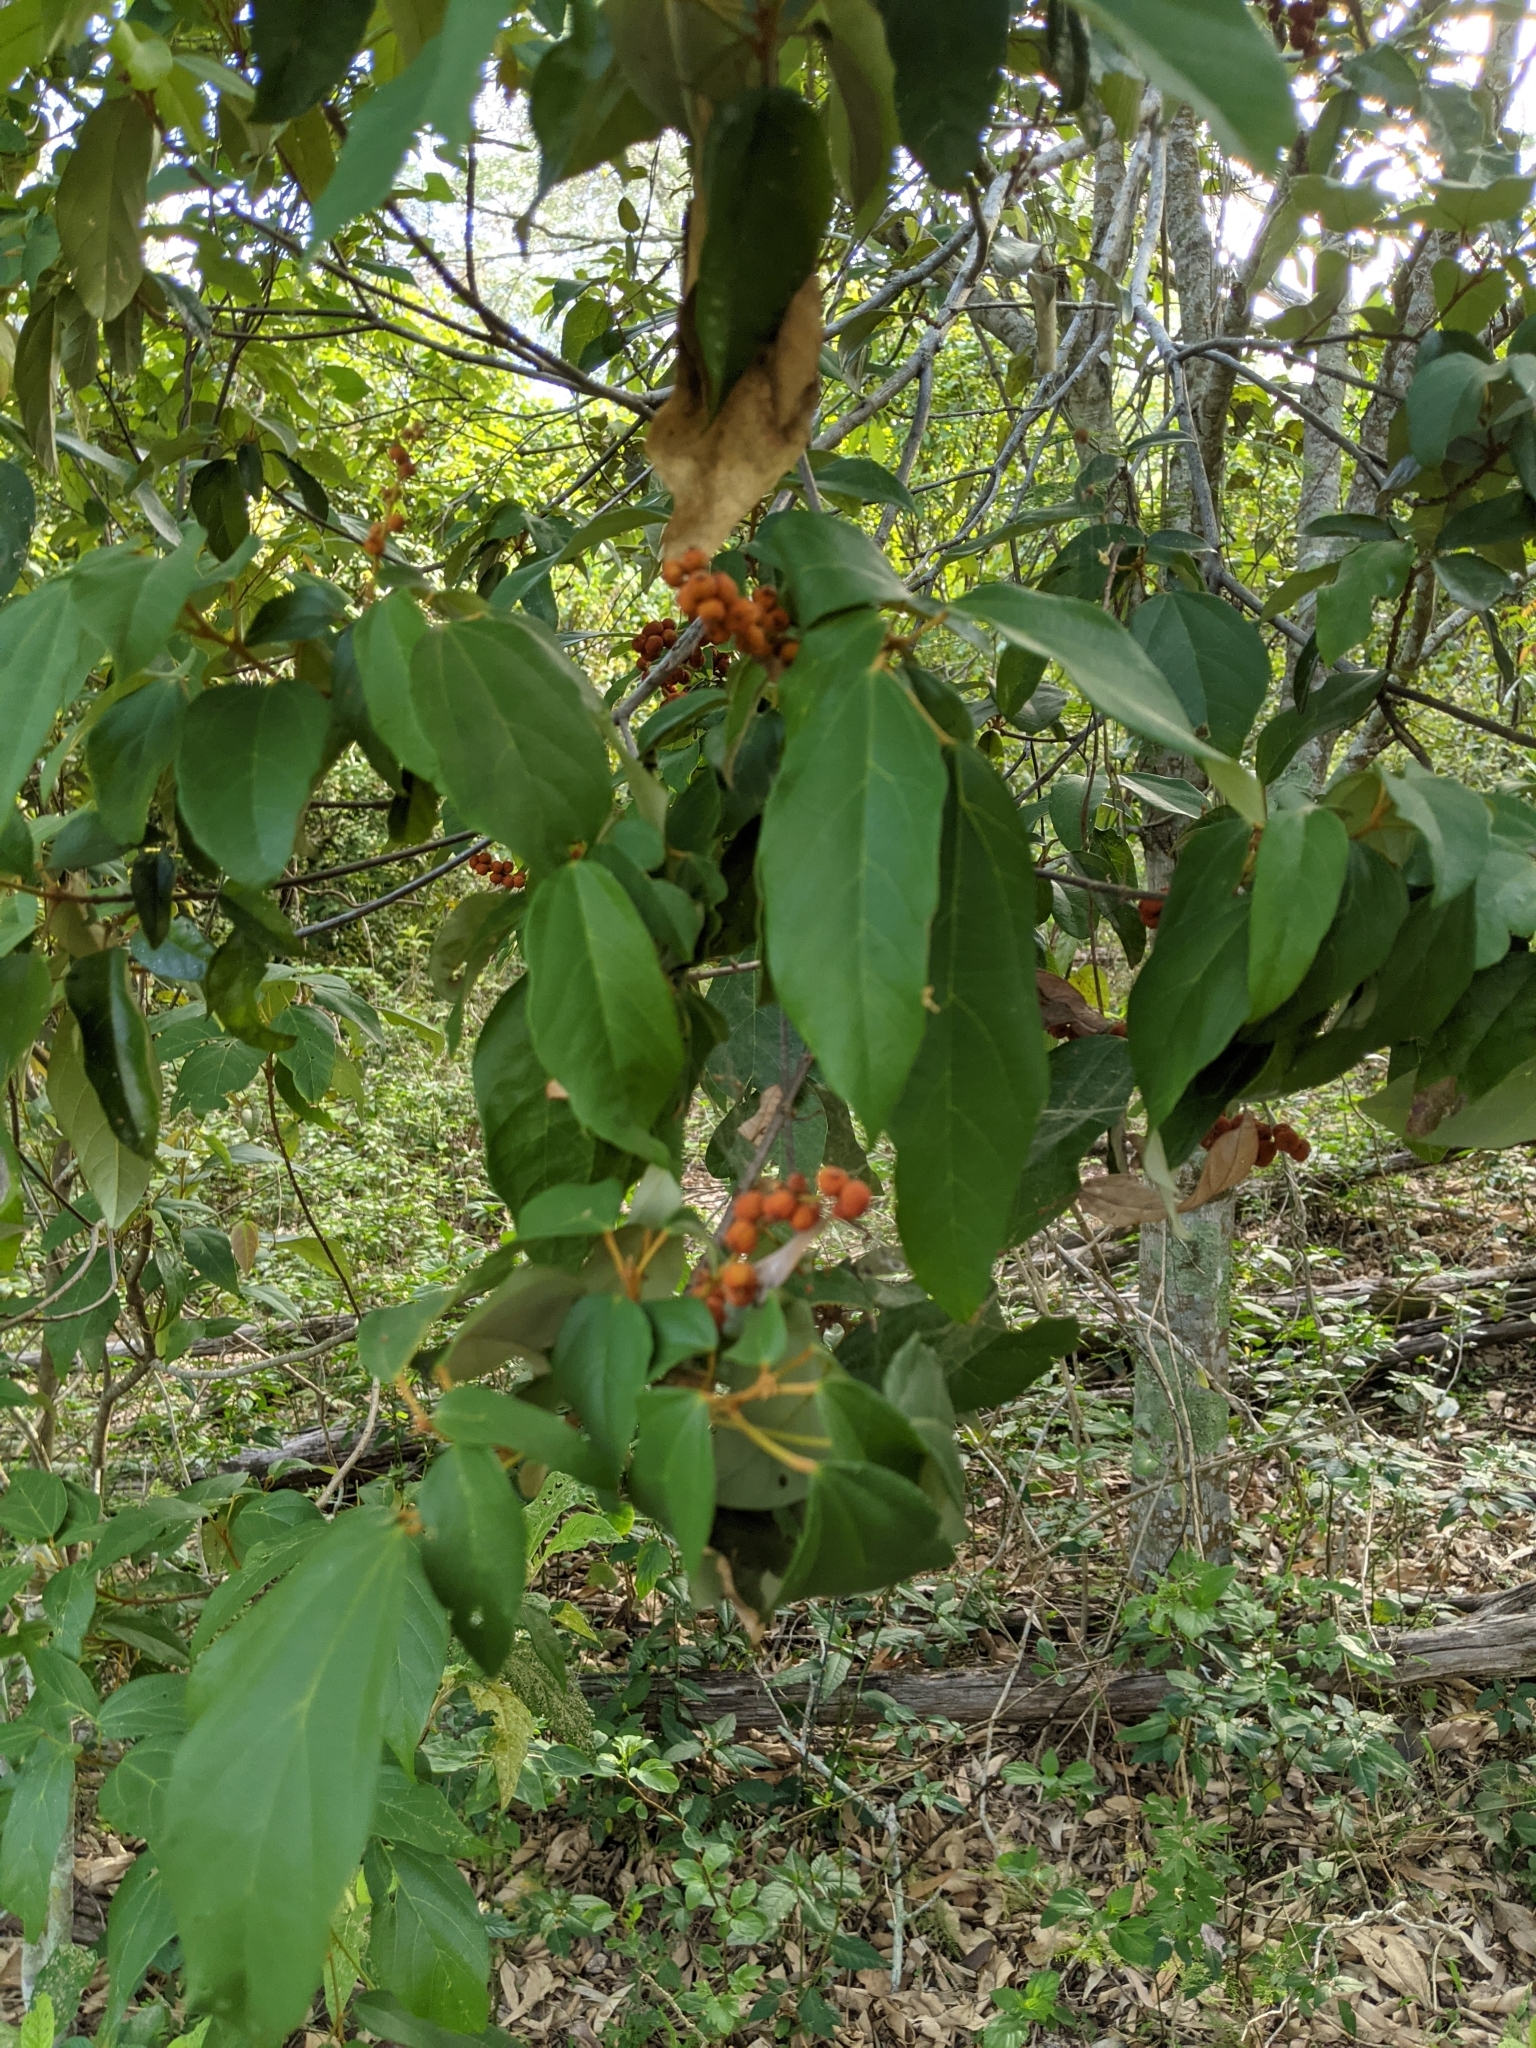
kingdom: Plantae
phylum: Tracheophyta
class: Magnoliopsida
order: Malpighiales
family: Euphorbiaceae
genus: Mallotus
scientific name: Mallotus philippensis
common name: Kamala tree
